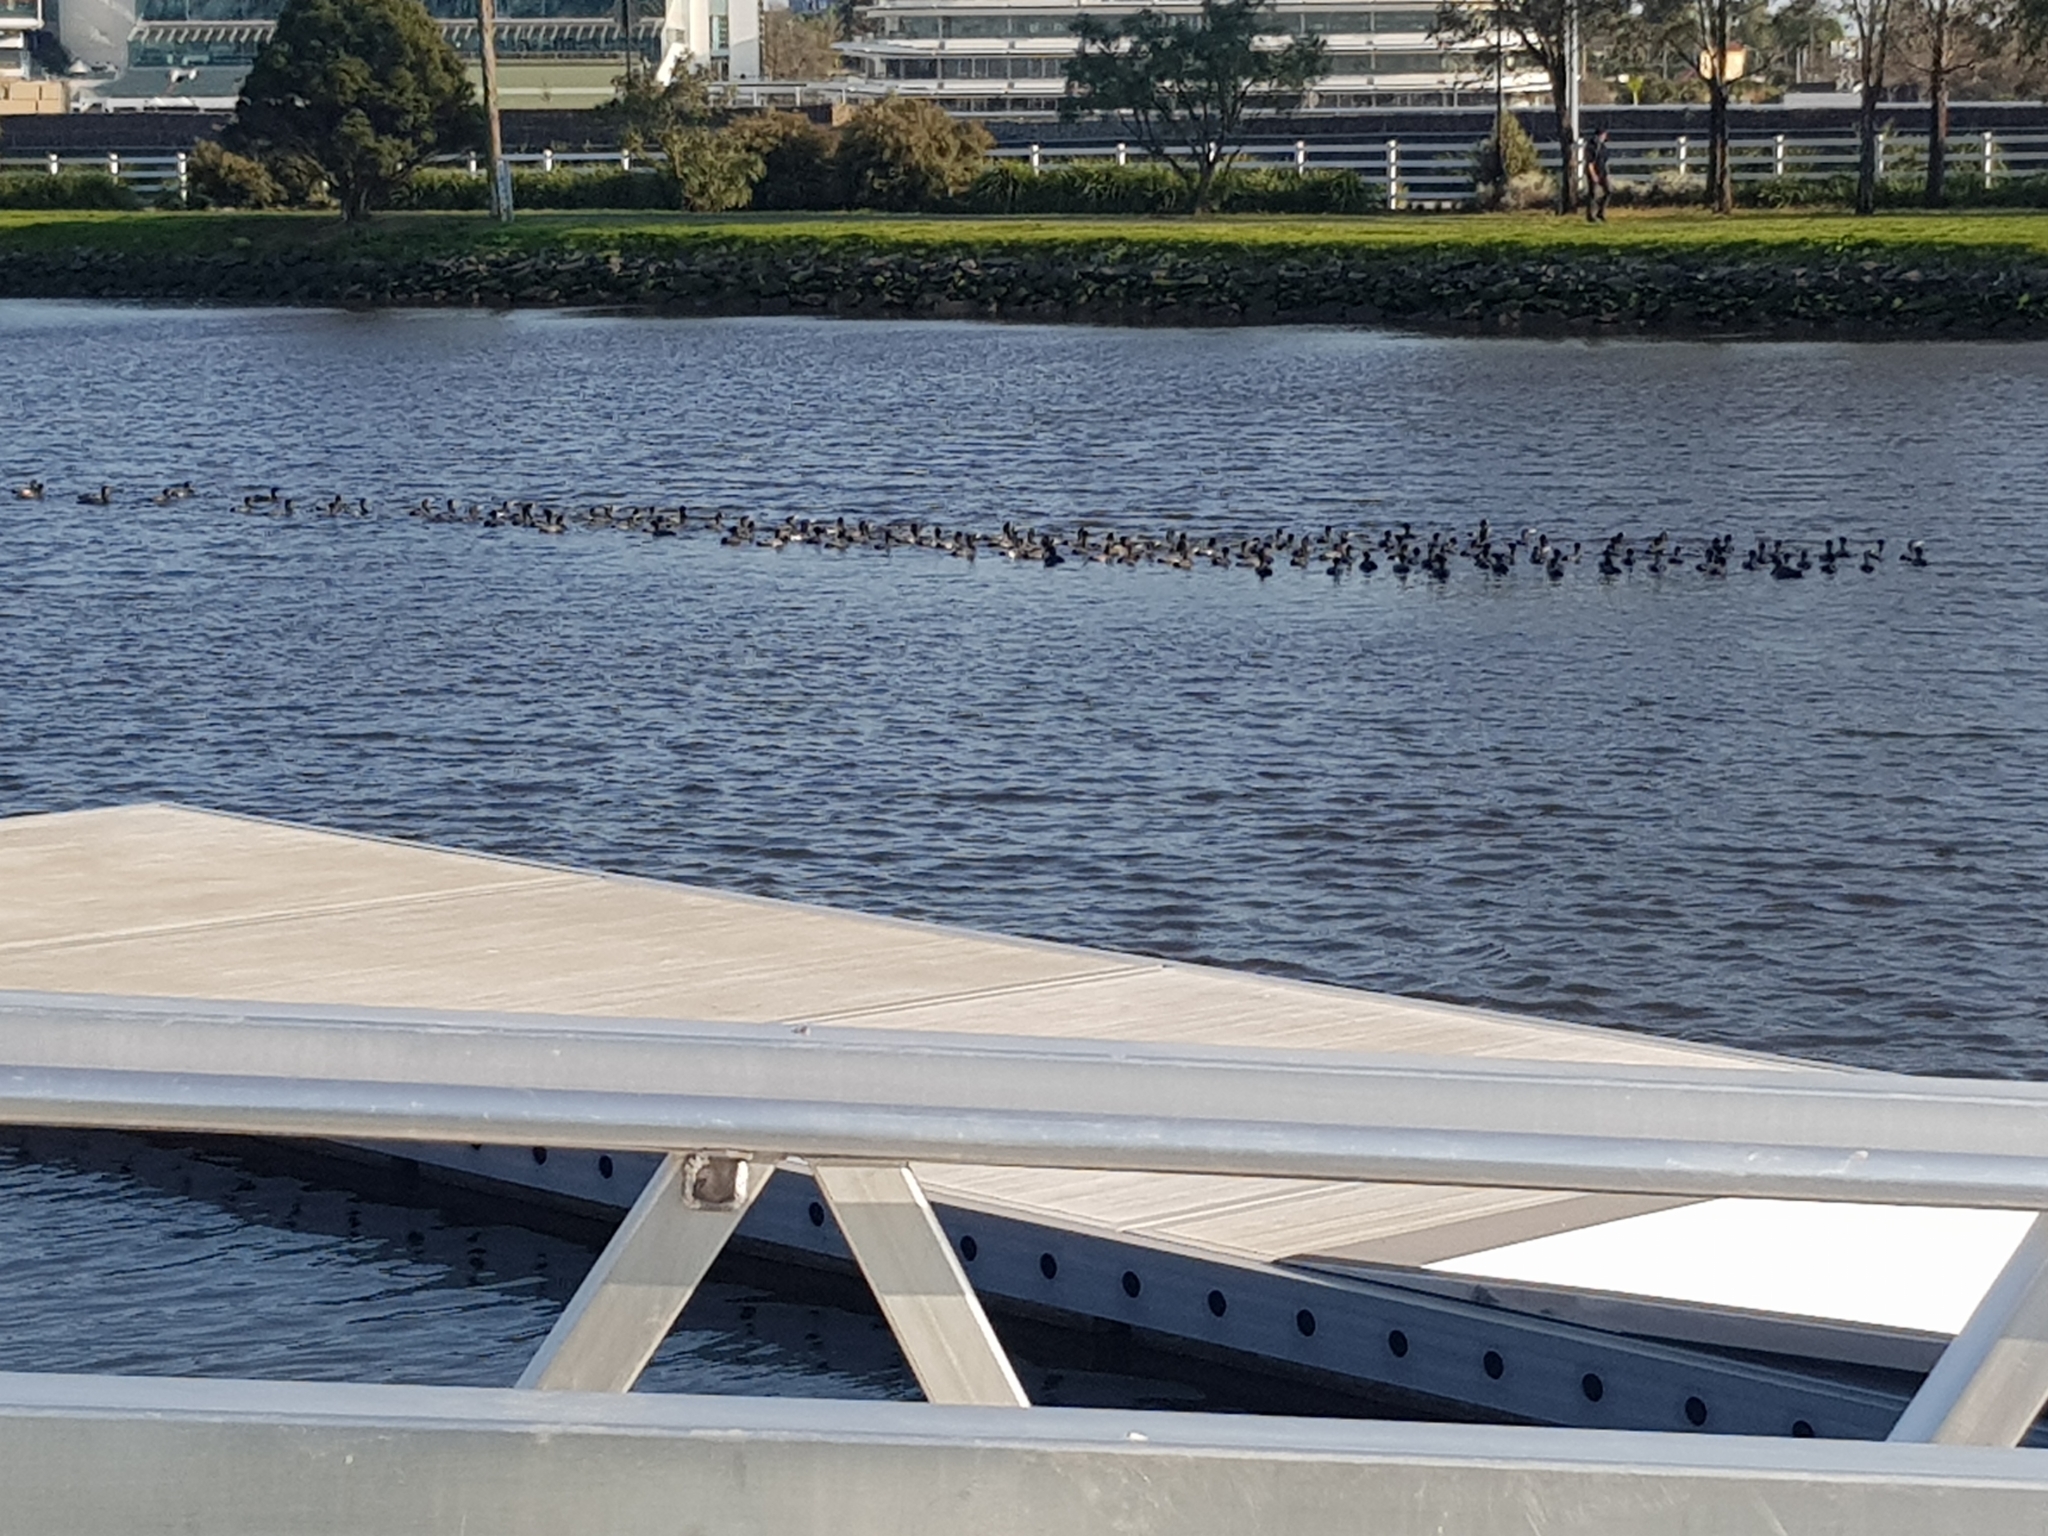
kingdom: Animalia
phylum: Chordata
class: Aves
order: Suliformes
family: Phalacrocoracidae
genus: Phalacrocorax
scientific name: Phalacrocorax sulcirostris
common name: Little black cormorant
